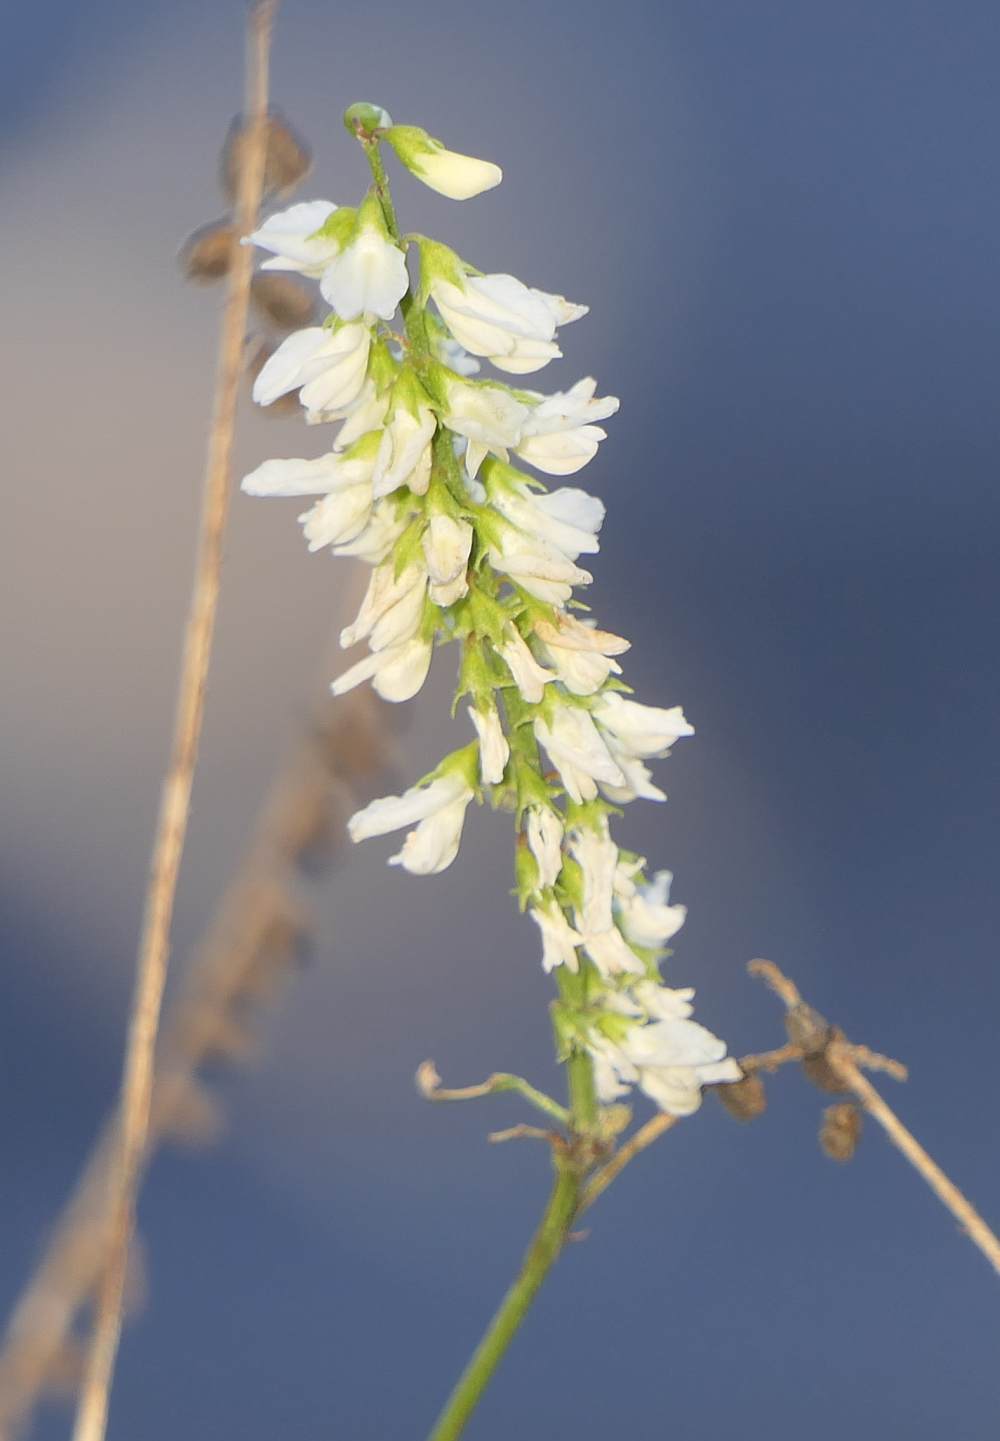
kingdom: Plantae
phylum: Tracheophyta
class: Magnoliopsida
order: Fabales
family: Fabaceae
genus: Melilotus
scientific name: Melilotus albus
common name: White melilot
